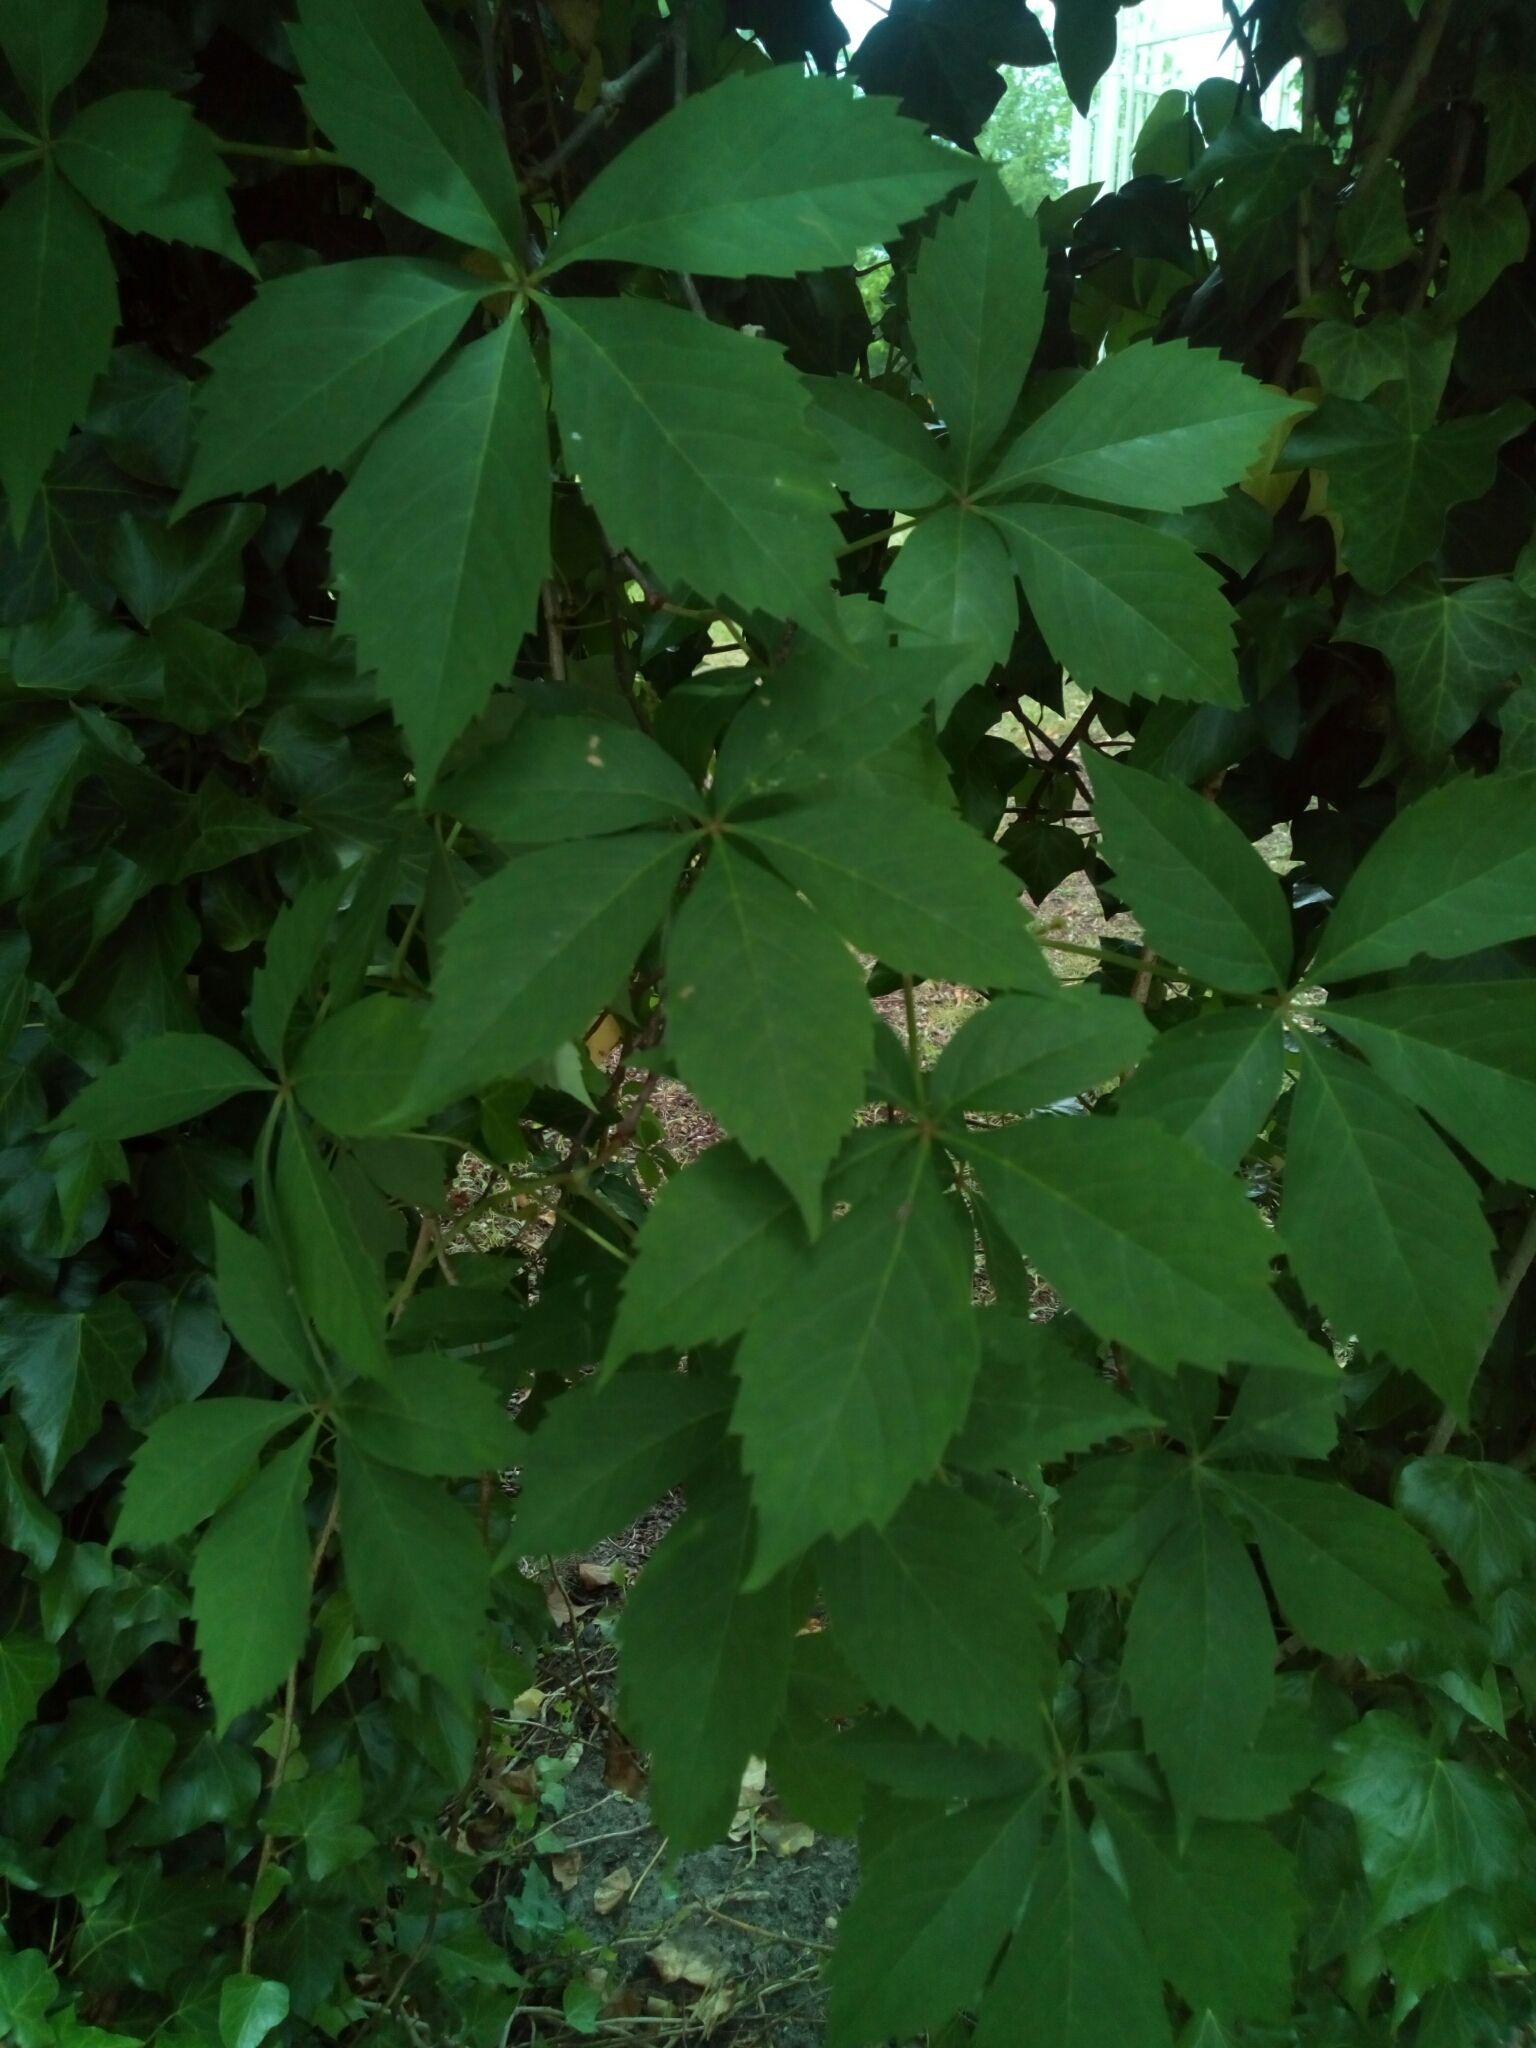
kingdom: Plantae
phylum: Tracheophyta
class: Magnoliopsida
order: Vitales
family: Vitaceae
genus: Parthenocissus
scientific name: Parthenocissus quinquefolia
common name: Virginia-creeper
